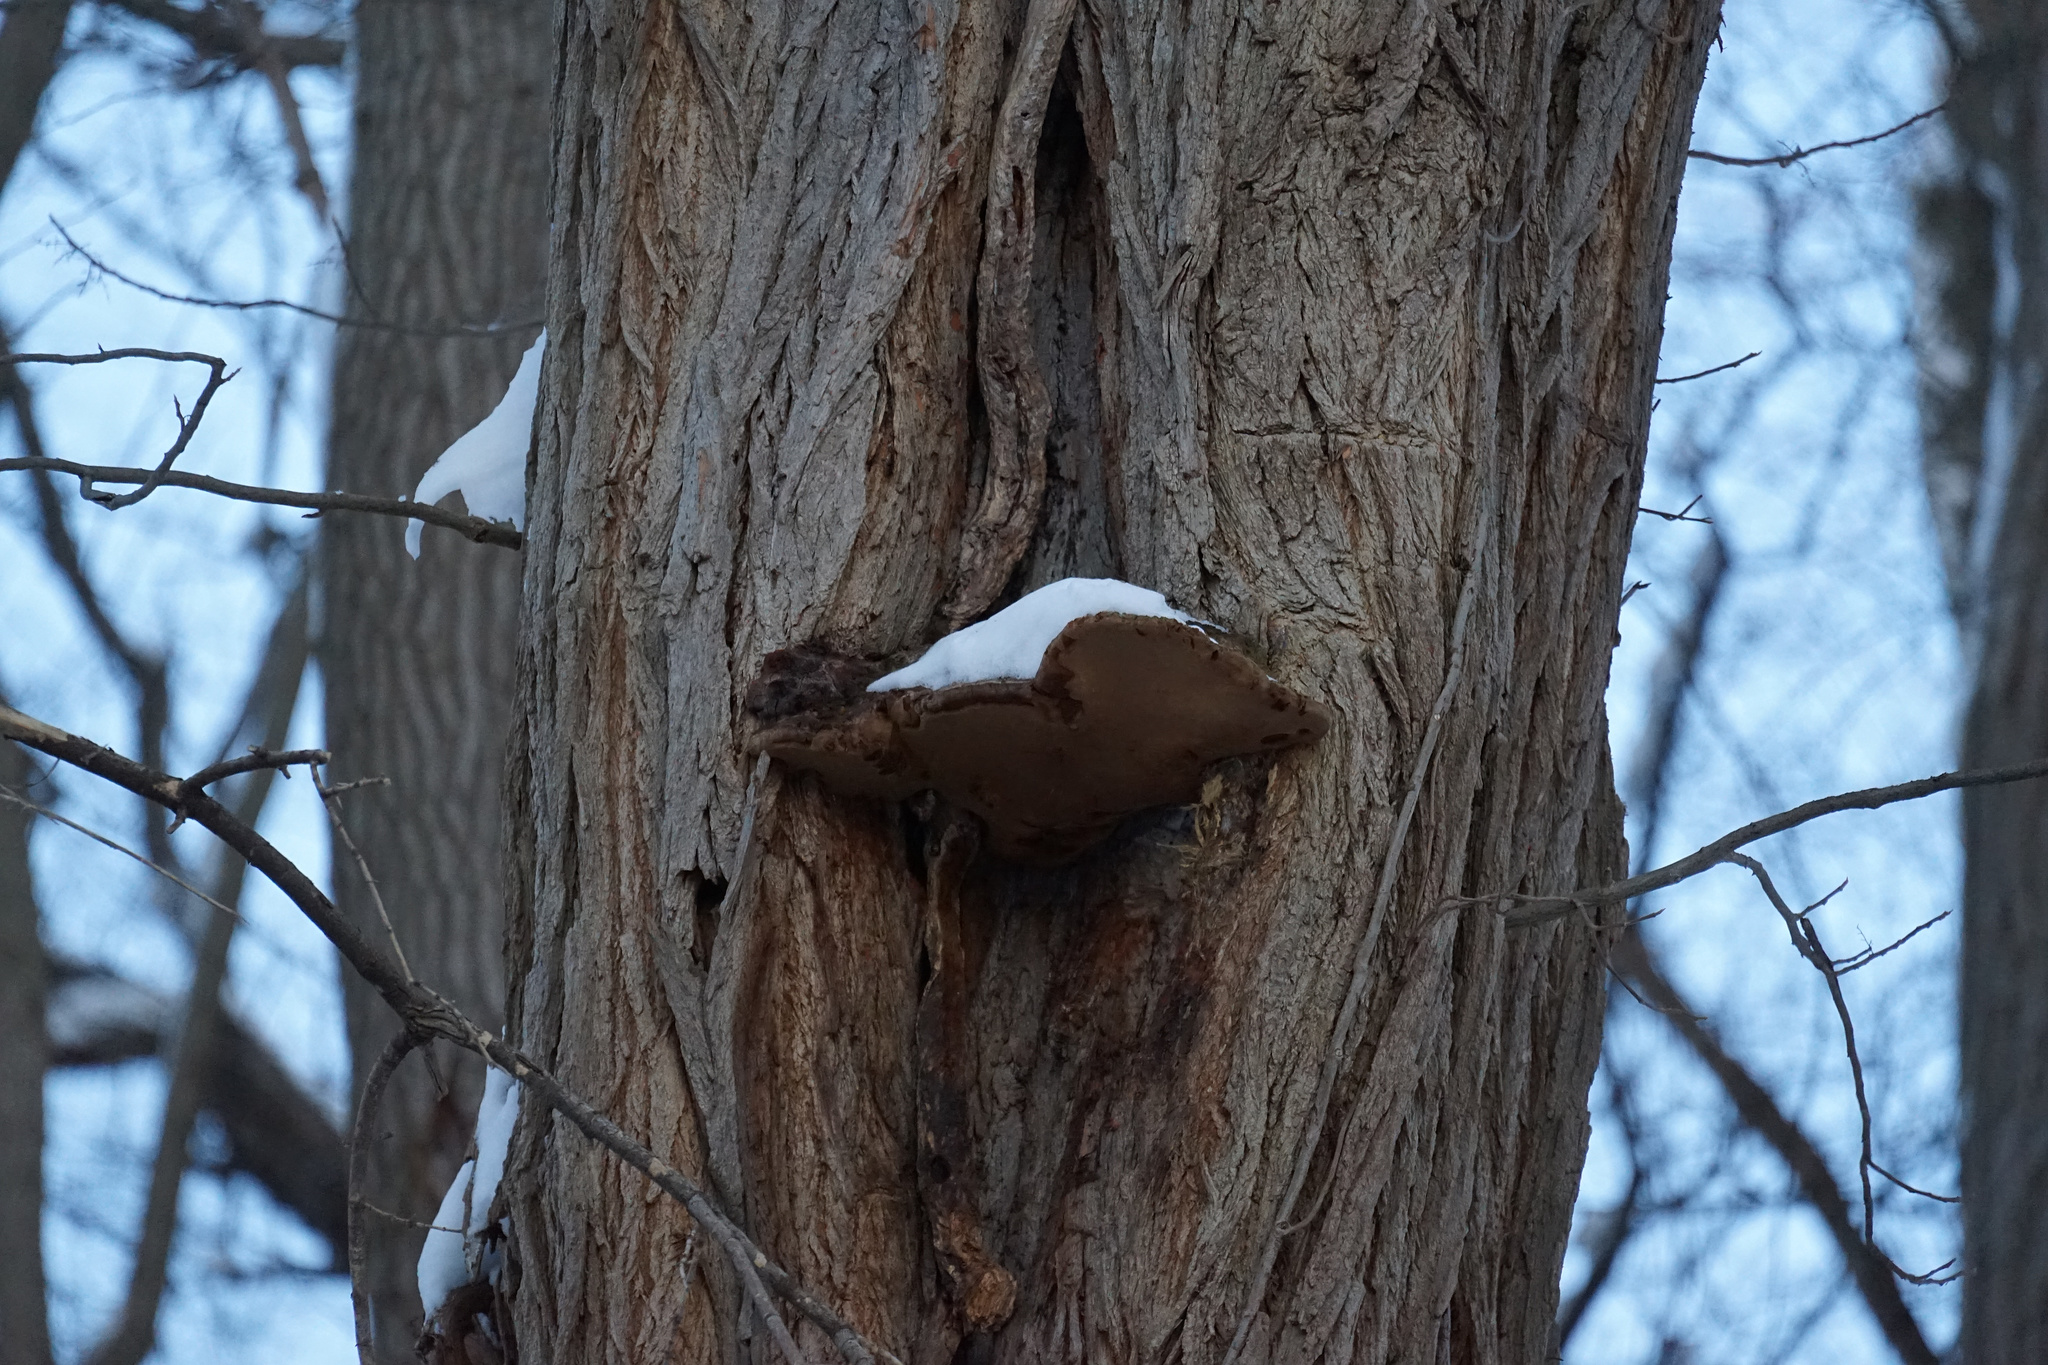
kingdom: Fungi
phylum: Basidiomycota
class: Agaricomycetes
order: Hymenochaetales
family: Hymenochaetaceae
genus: Phellinus
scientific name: Phellinus robiniae
